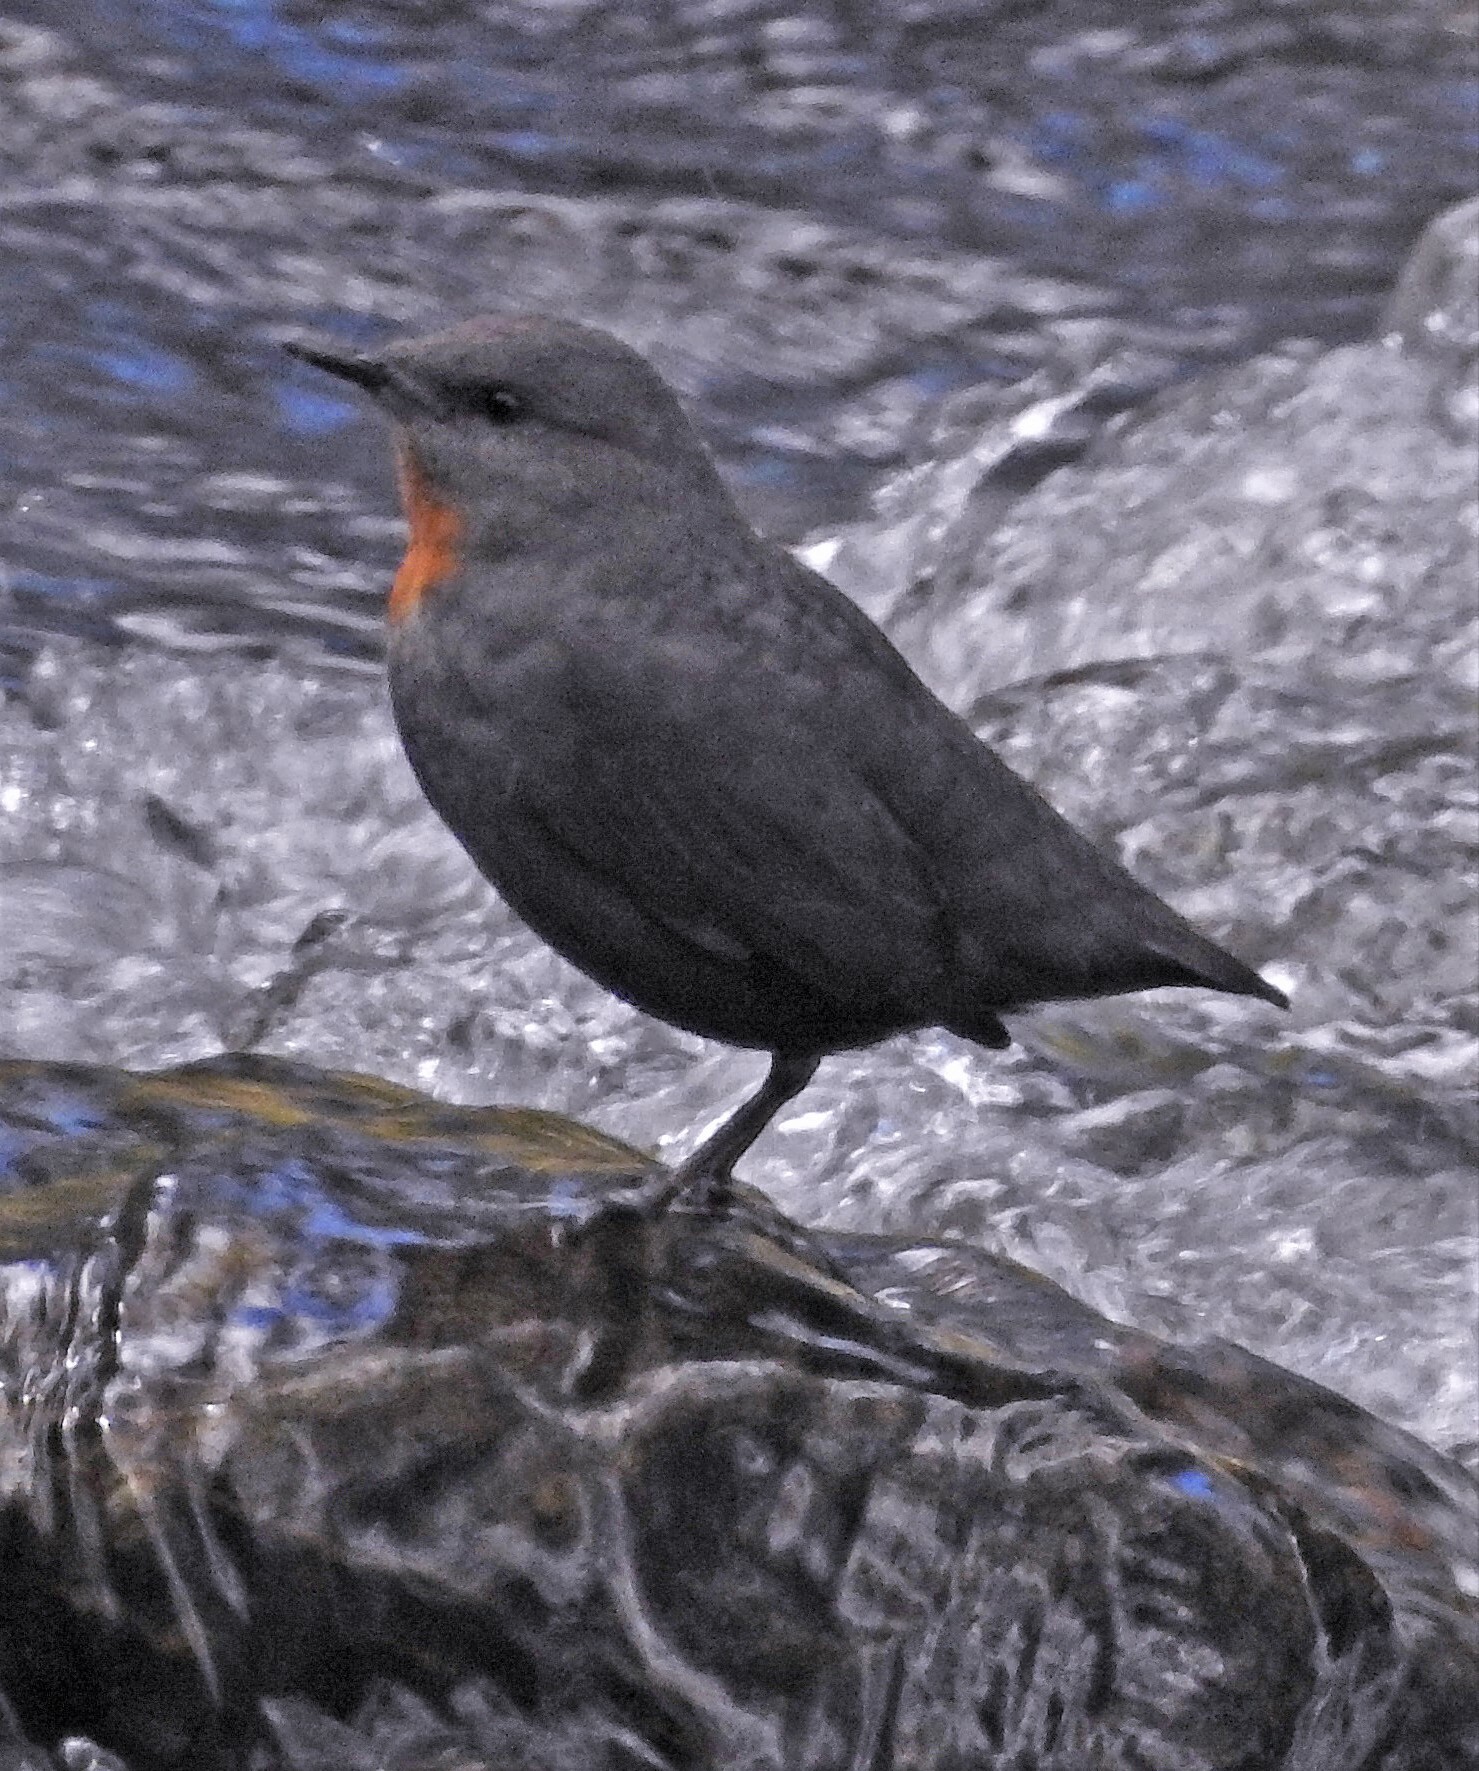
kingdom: Animalia
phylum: Chordata
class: Aves
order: Passeriformes
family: Cinclidae
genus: Cinclus
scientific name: Cinclus schulzii
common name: Rufous-throated dipper
